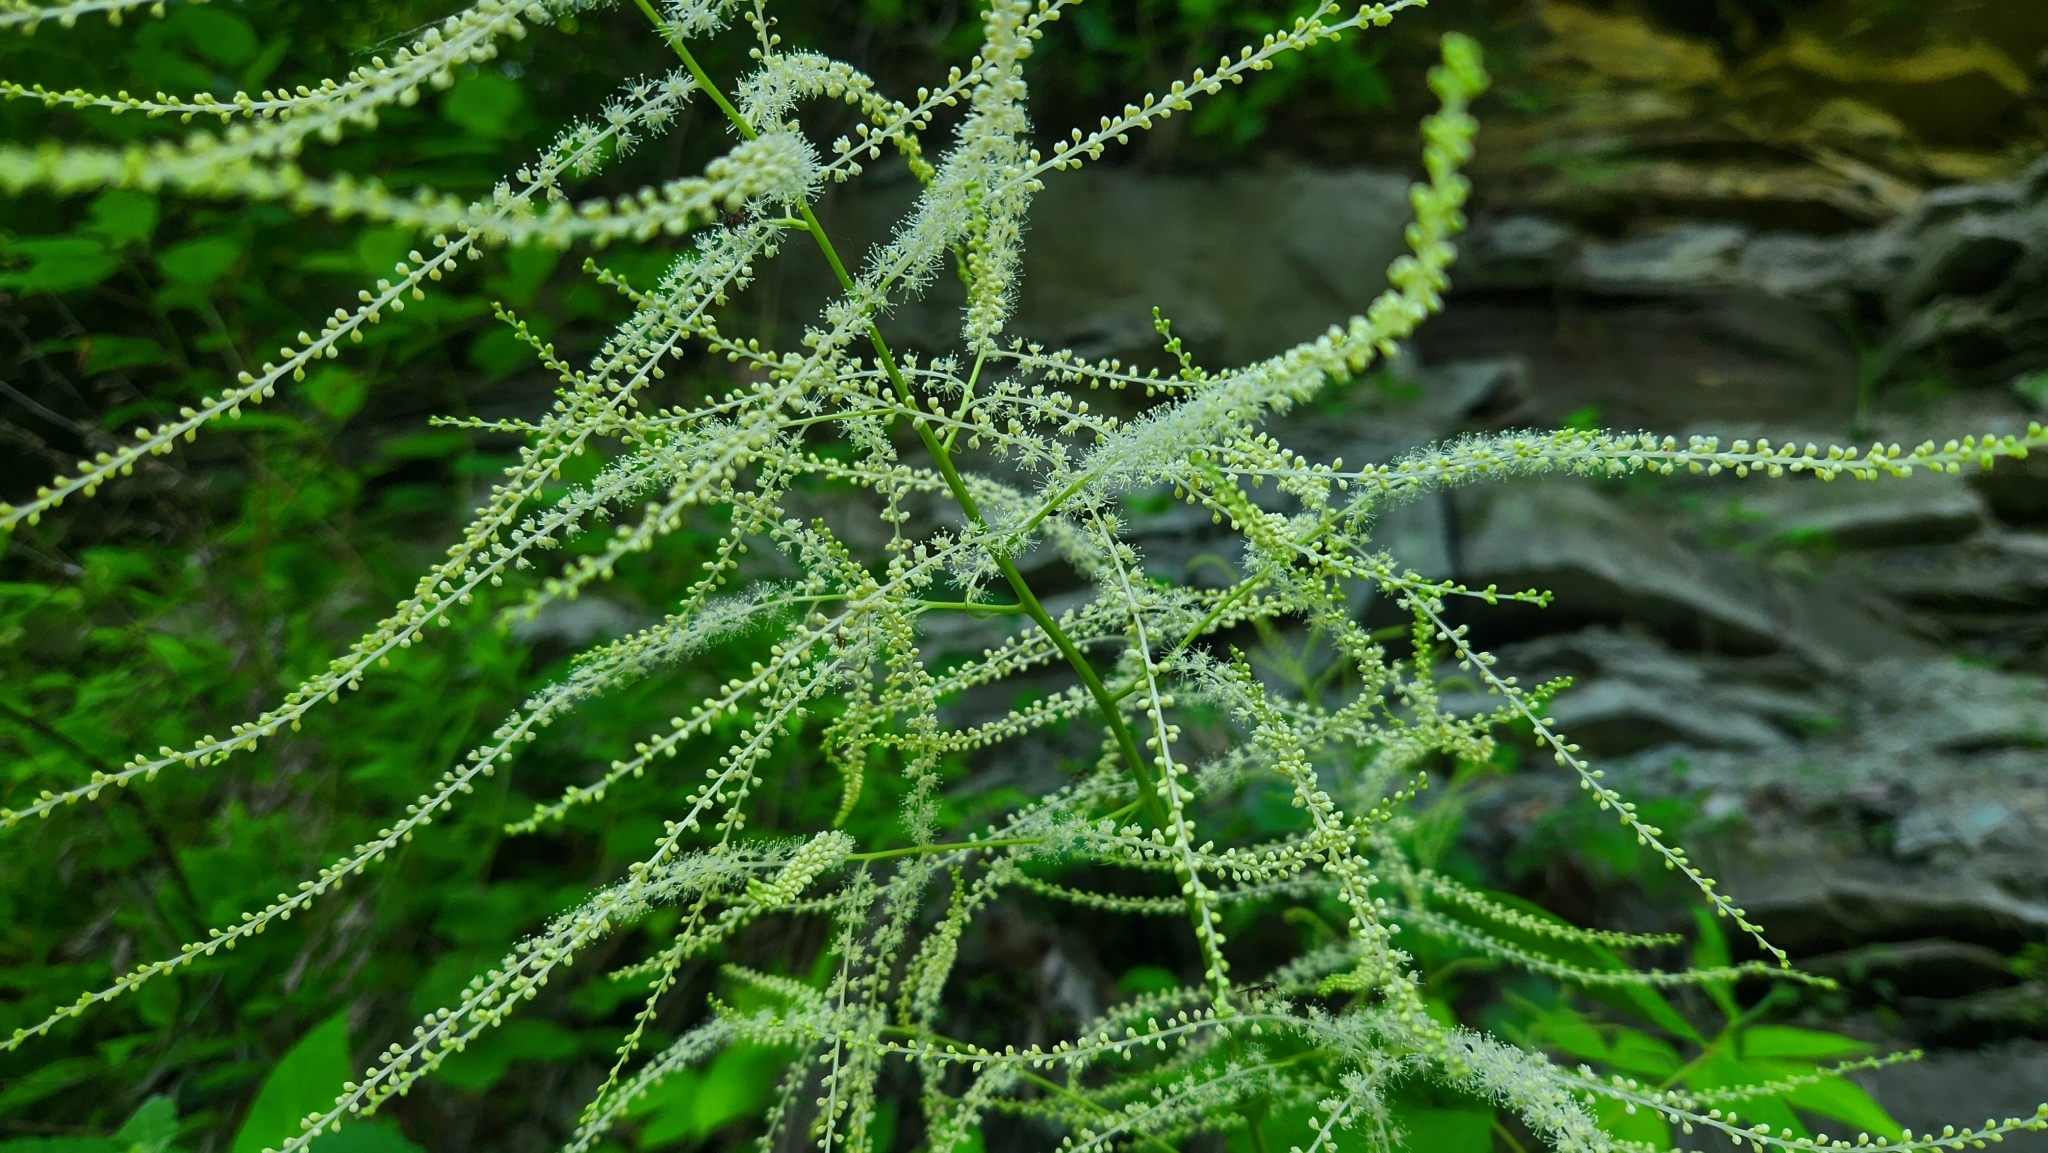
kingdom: Plantae
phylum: Tracheophyta
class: Magnoliopsida
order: Rosales
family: Rosaceae
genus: Aruncus
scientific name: Aruncus dioicus
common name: Buck's-beard
